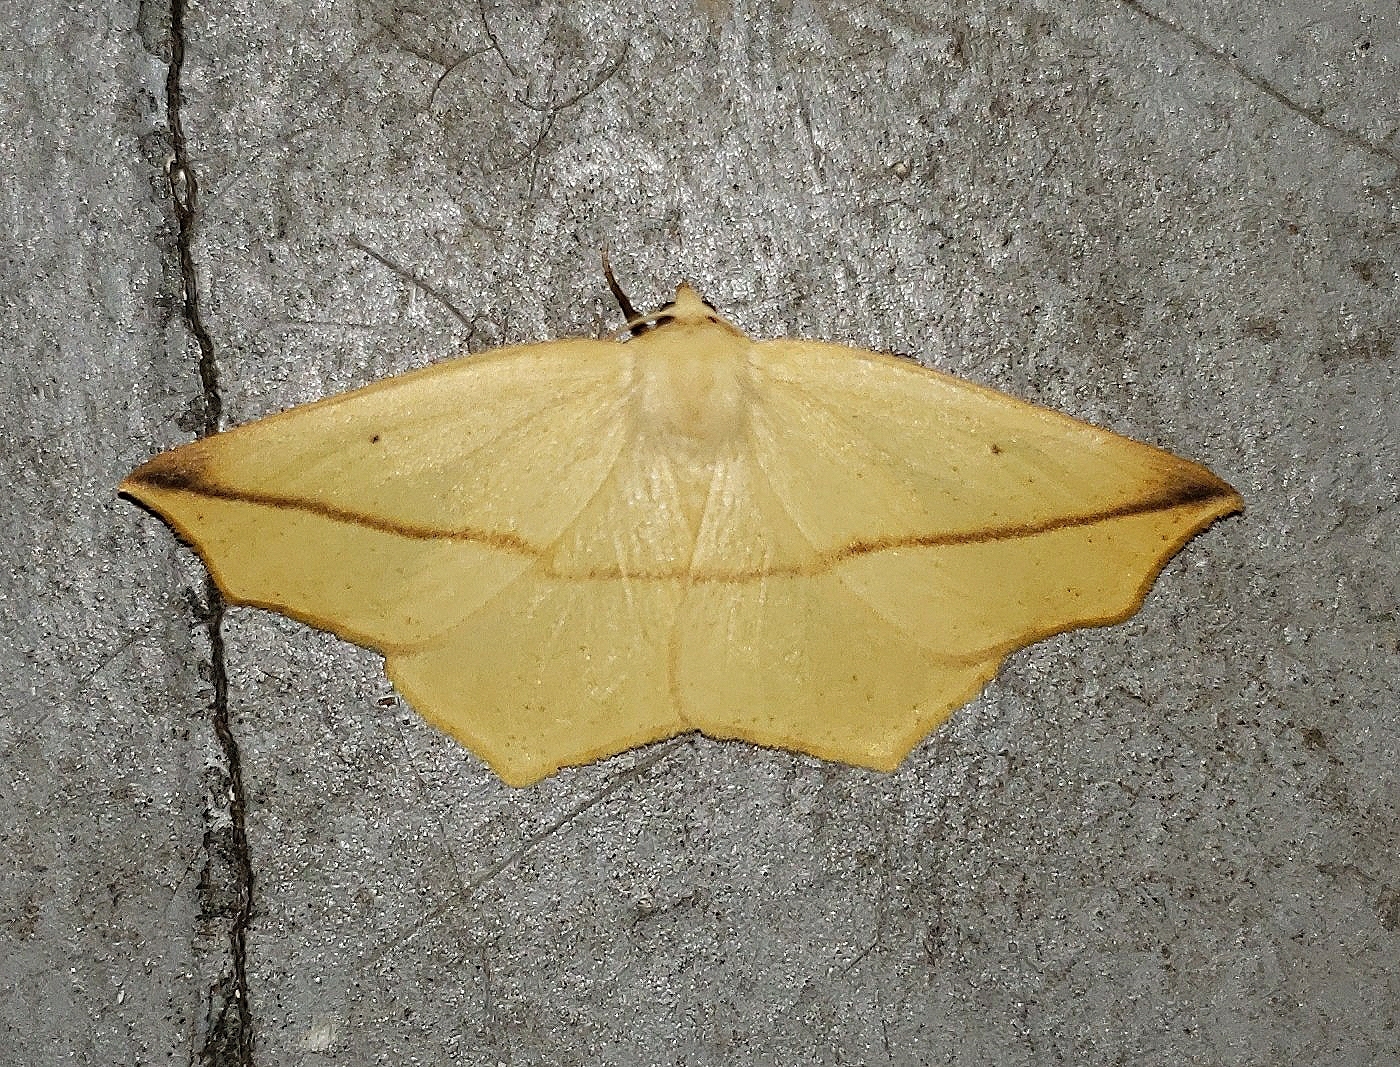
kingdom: Animalia
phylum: Arthropoda
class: Insecta
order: Lepidoptera
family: Geometridae
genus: Tetracis
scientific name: Tetracis crocallata
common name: Yellow slant-line
